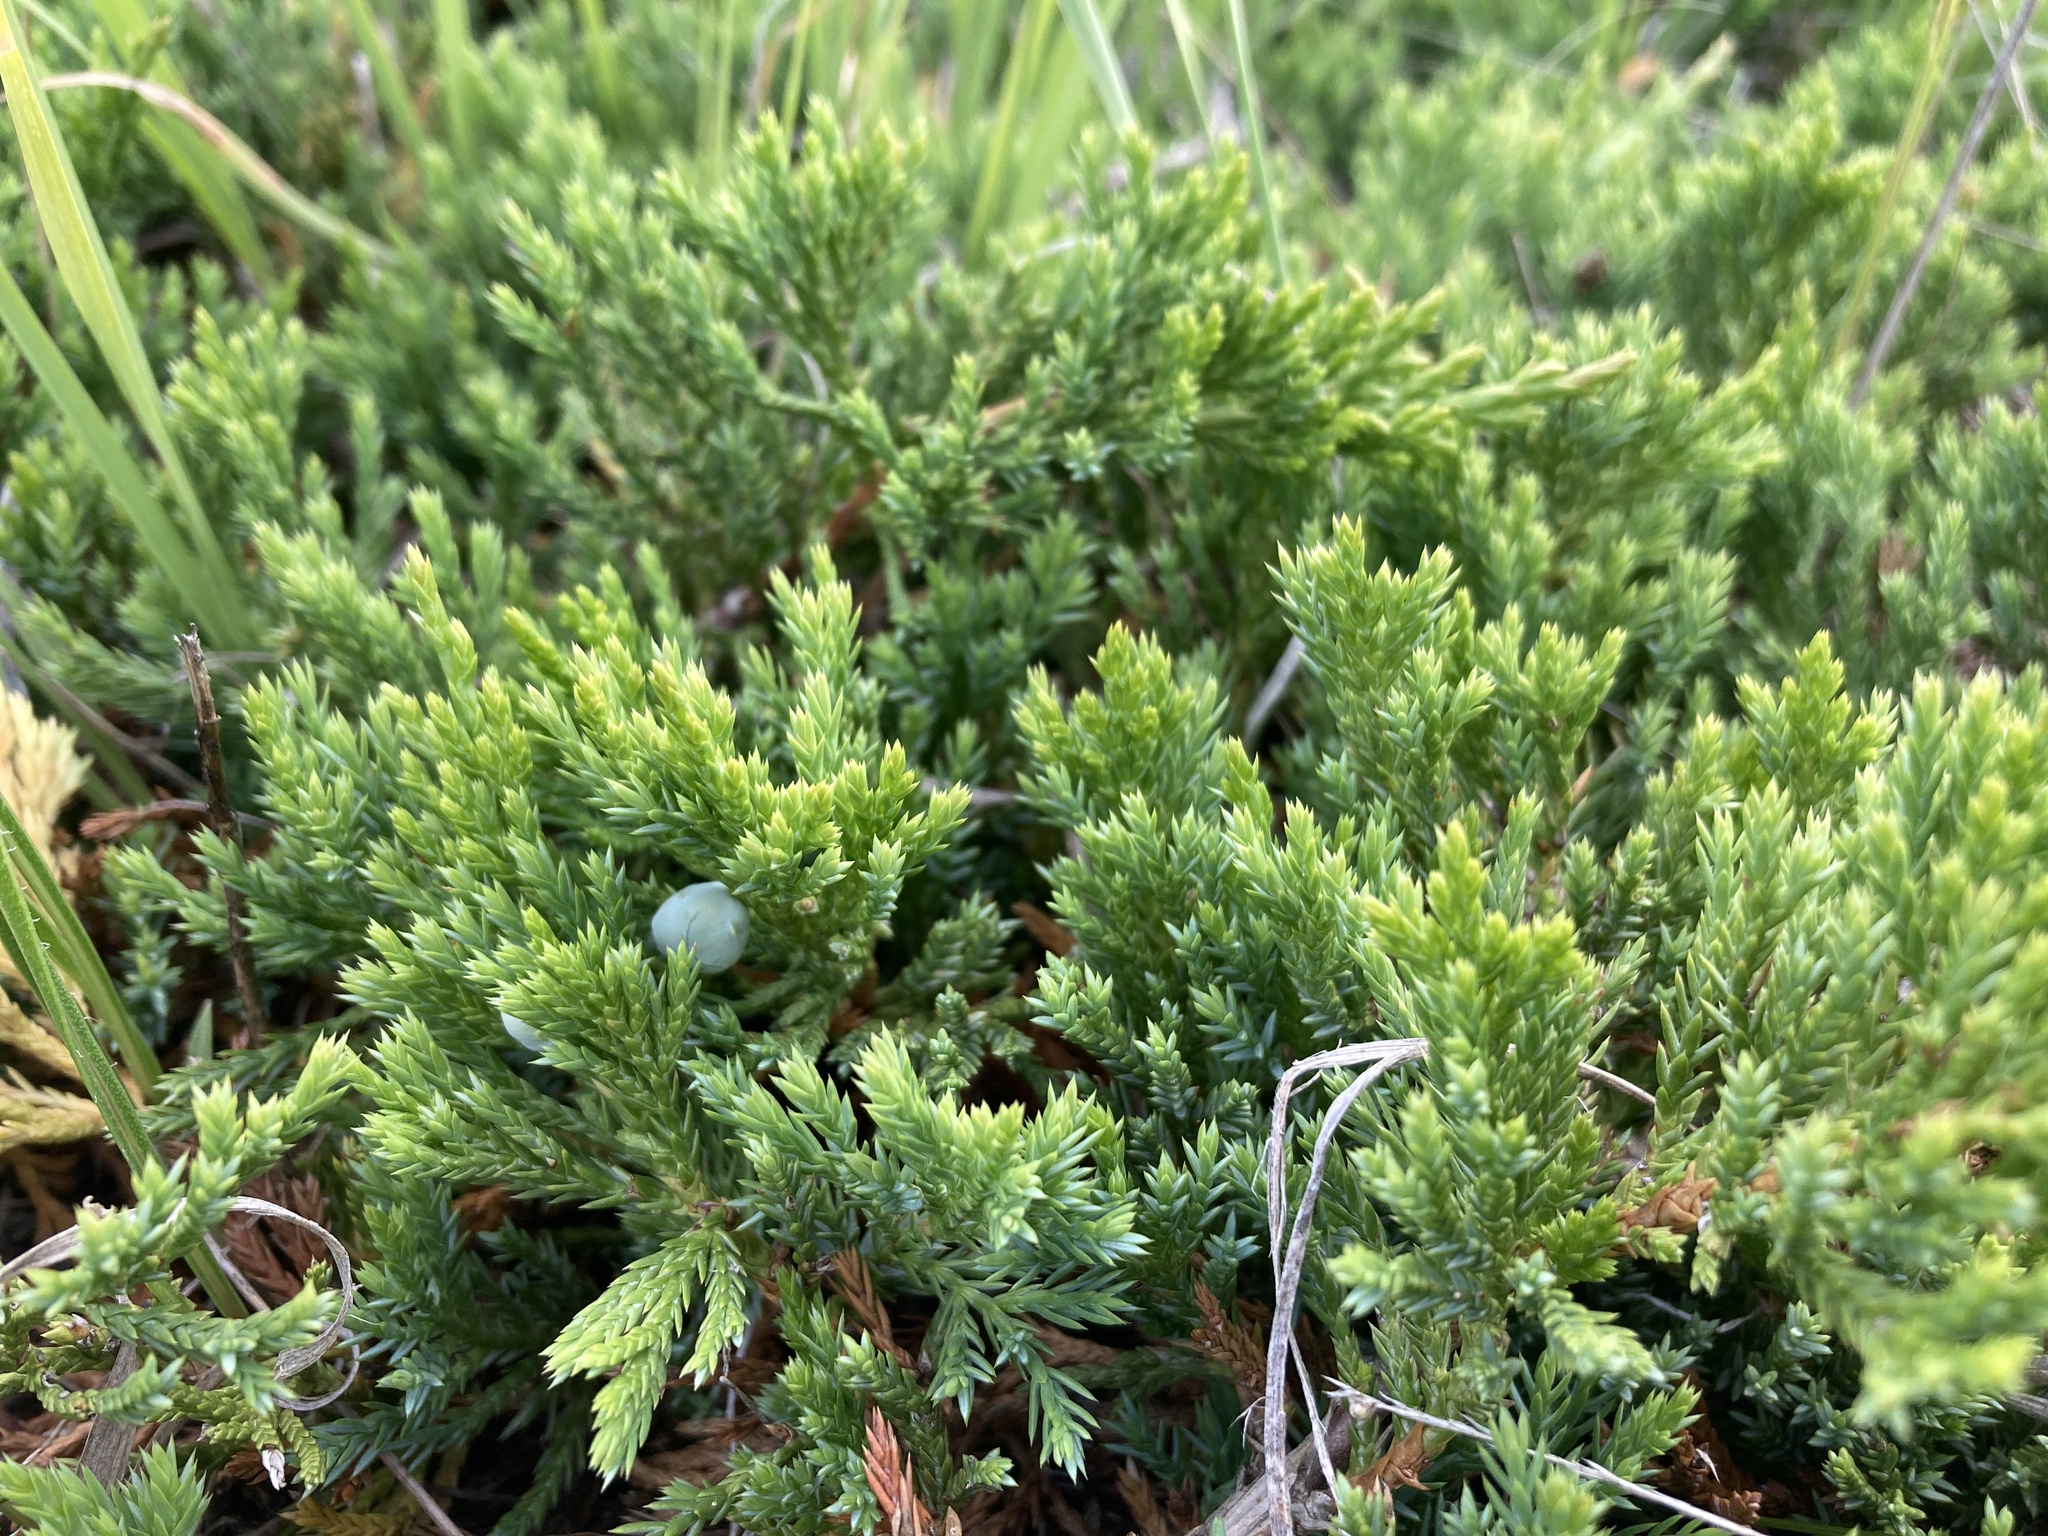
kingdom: Plantae
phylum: Tracheophyta
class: Pinopsida
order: Pinales
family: Cupressaceae
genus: Juniperus
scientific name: Juniperus horizontalis
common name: Creeping juniper
